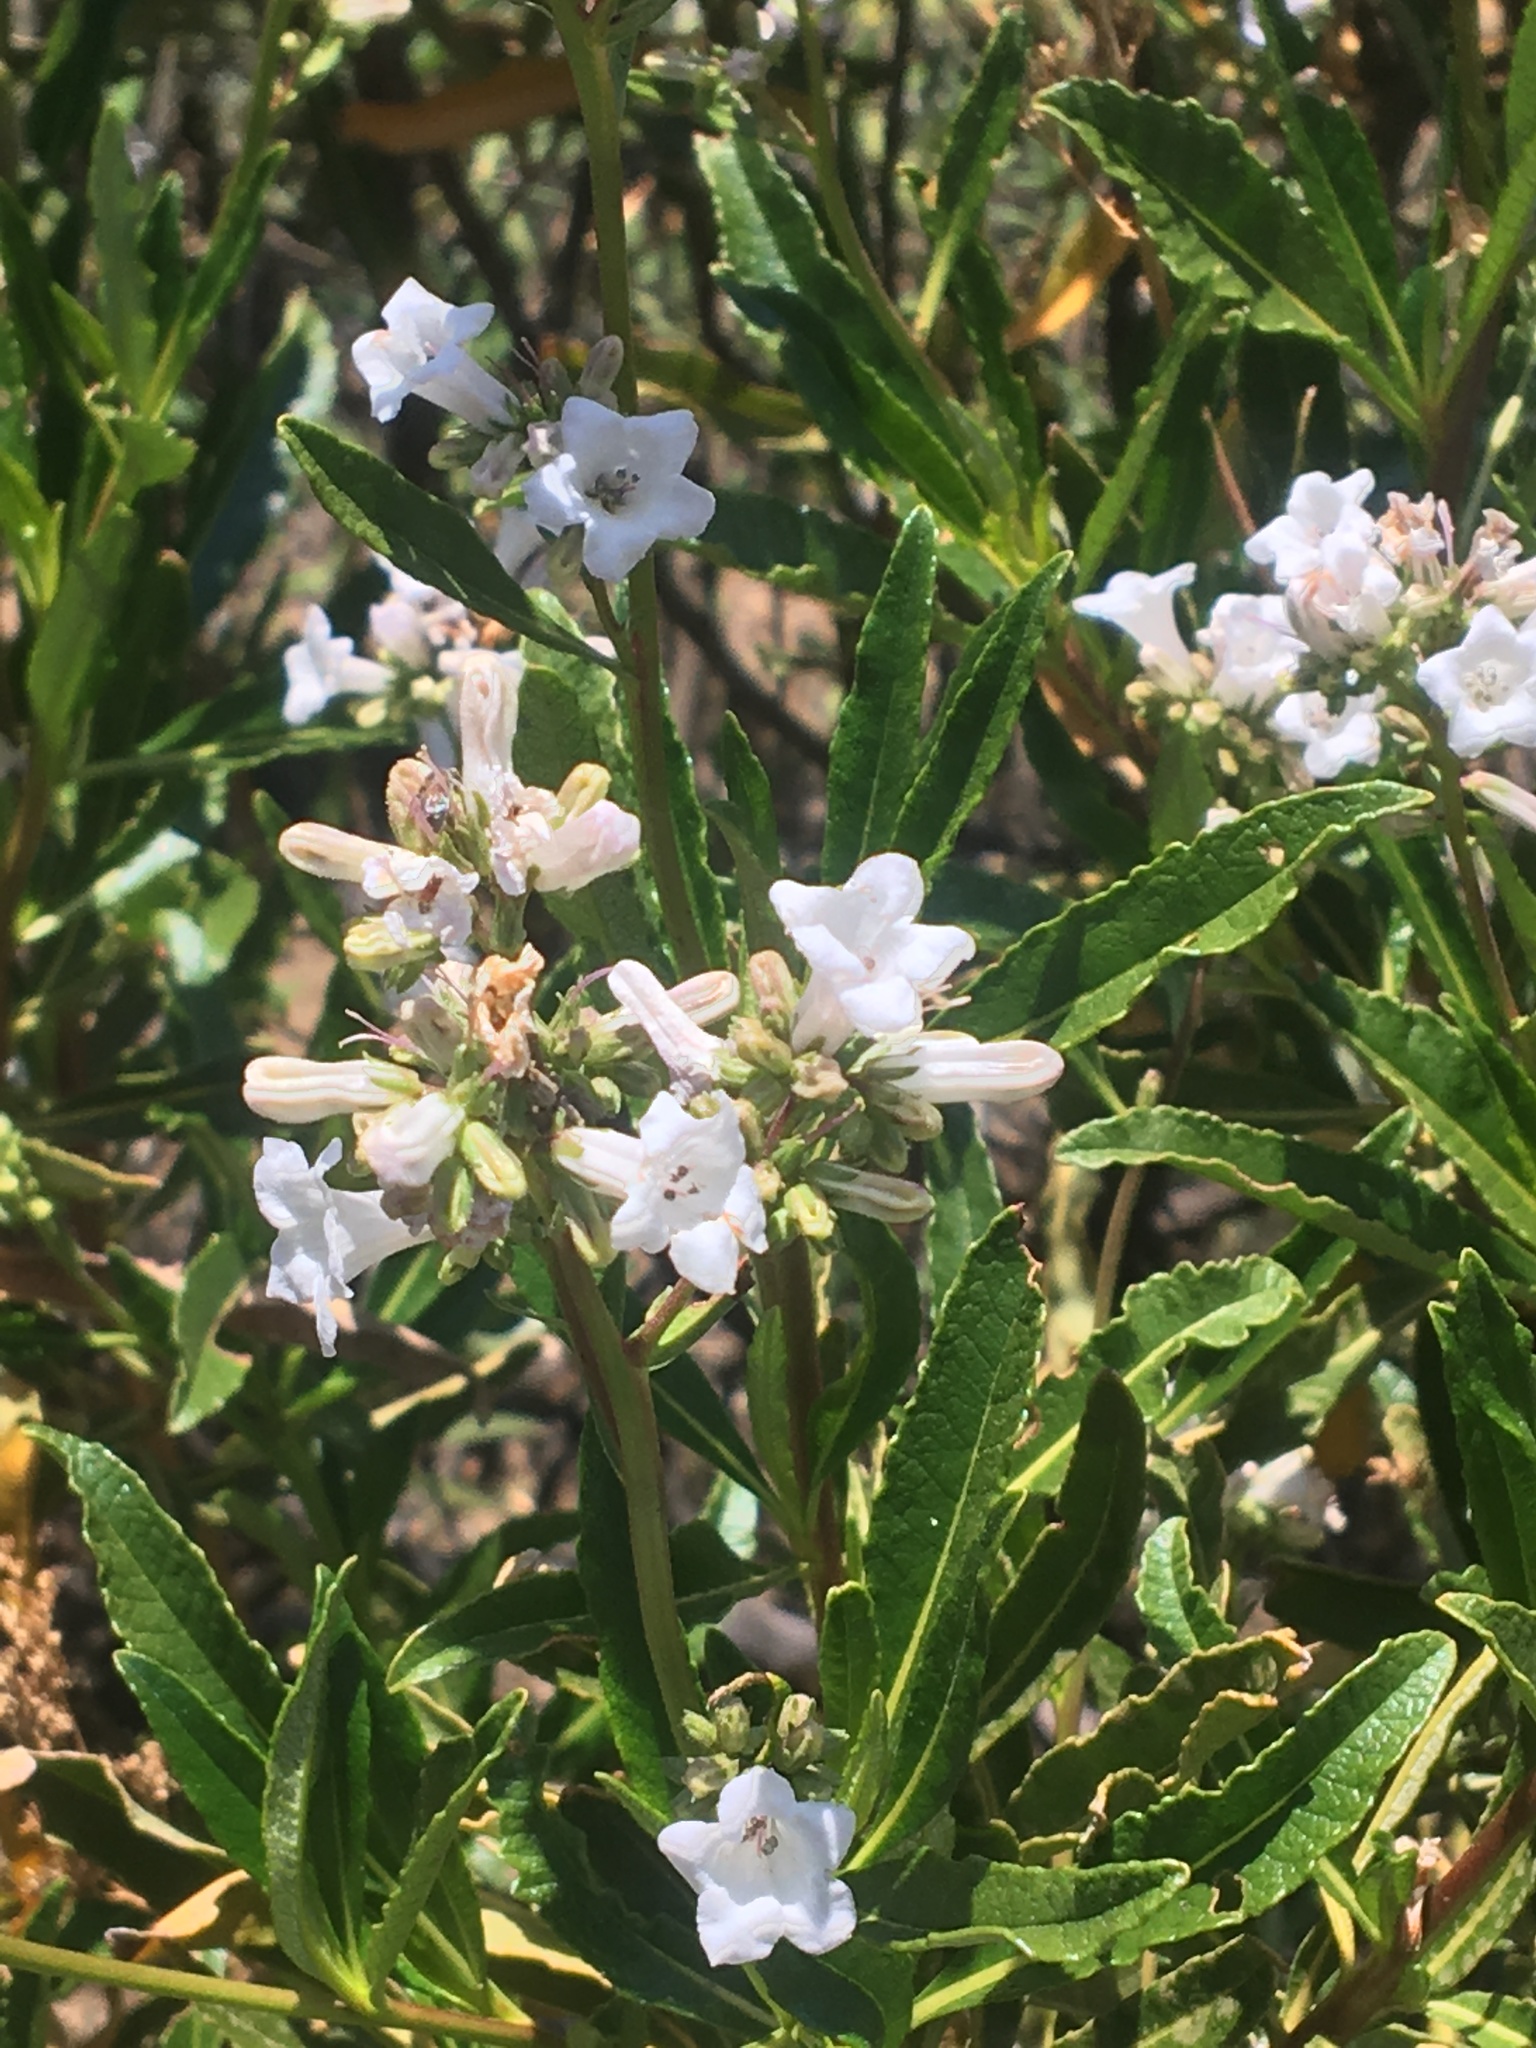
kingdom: Plantae
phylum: Tracheophyta
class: Magnoliopsida
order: Boraginales
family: Namaceae
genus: Eriodictyon
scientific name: Eriodictyon californicum
